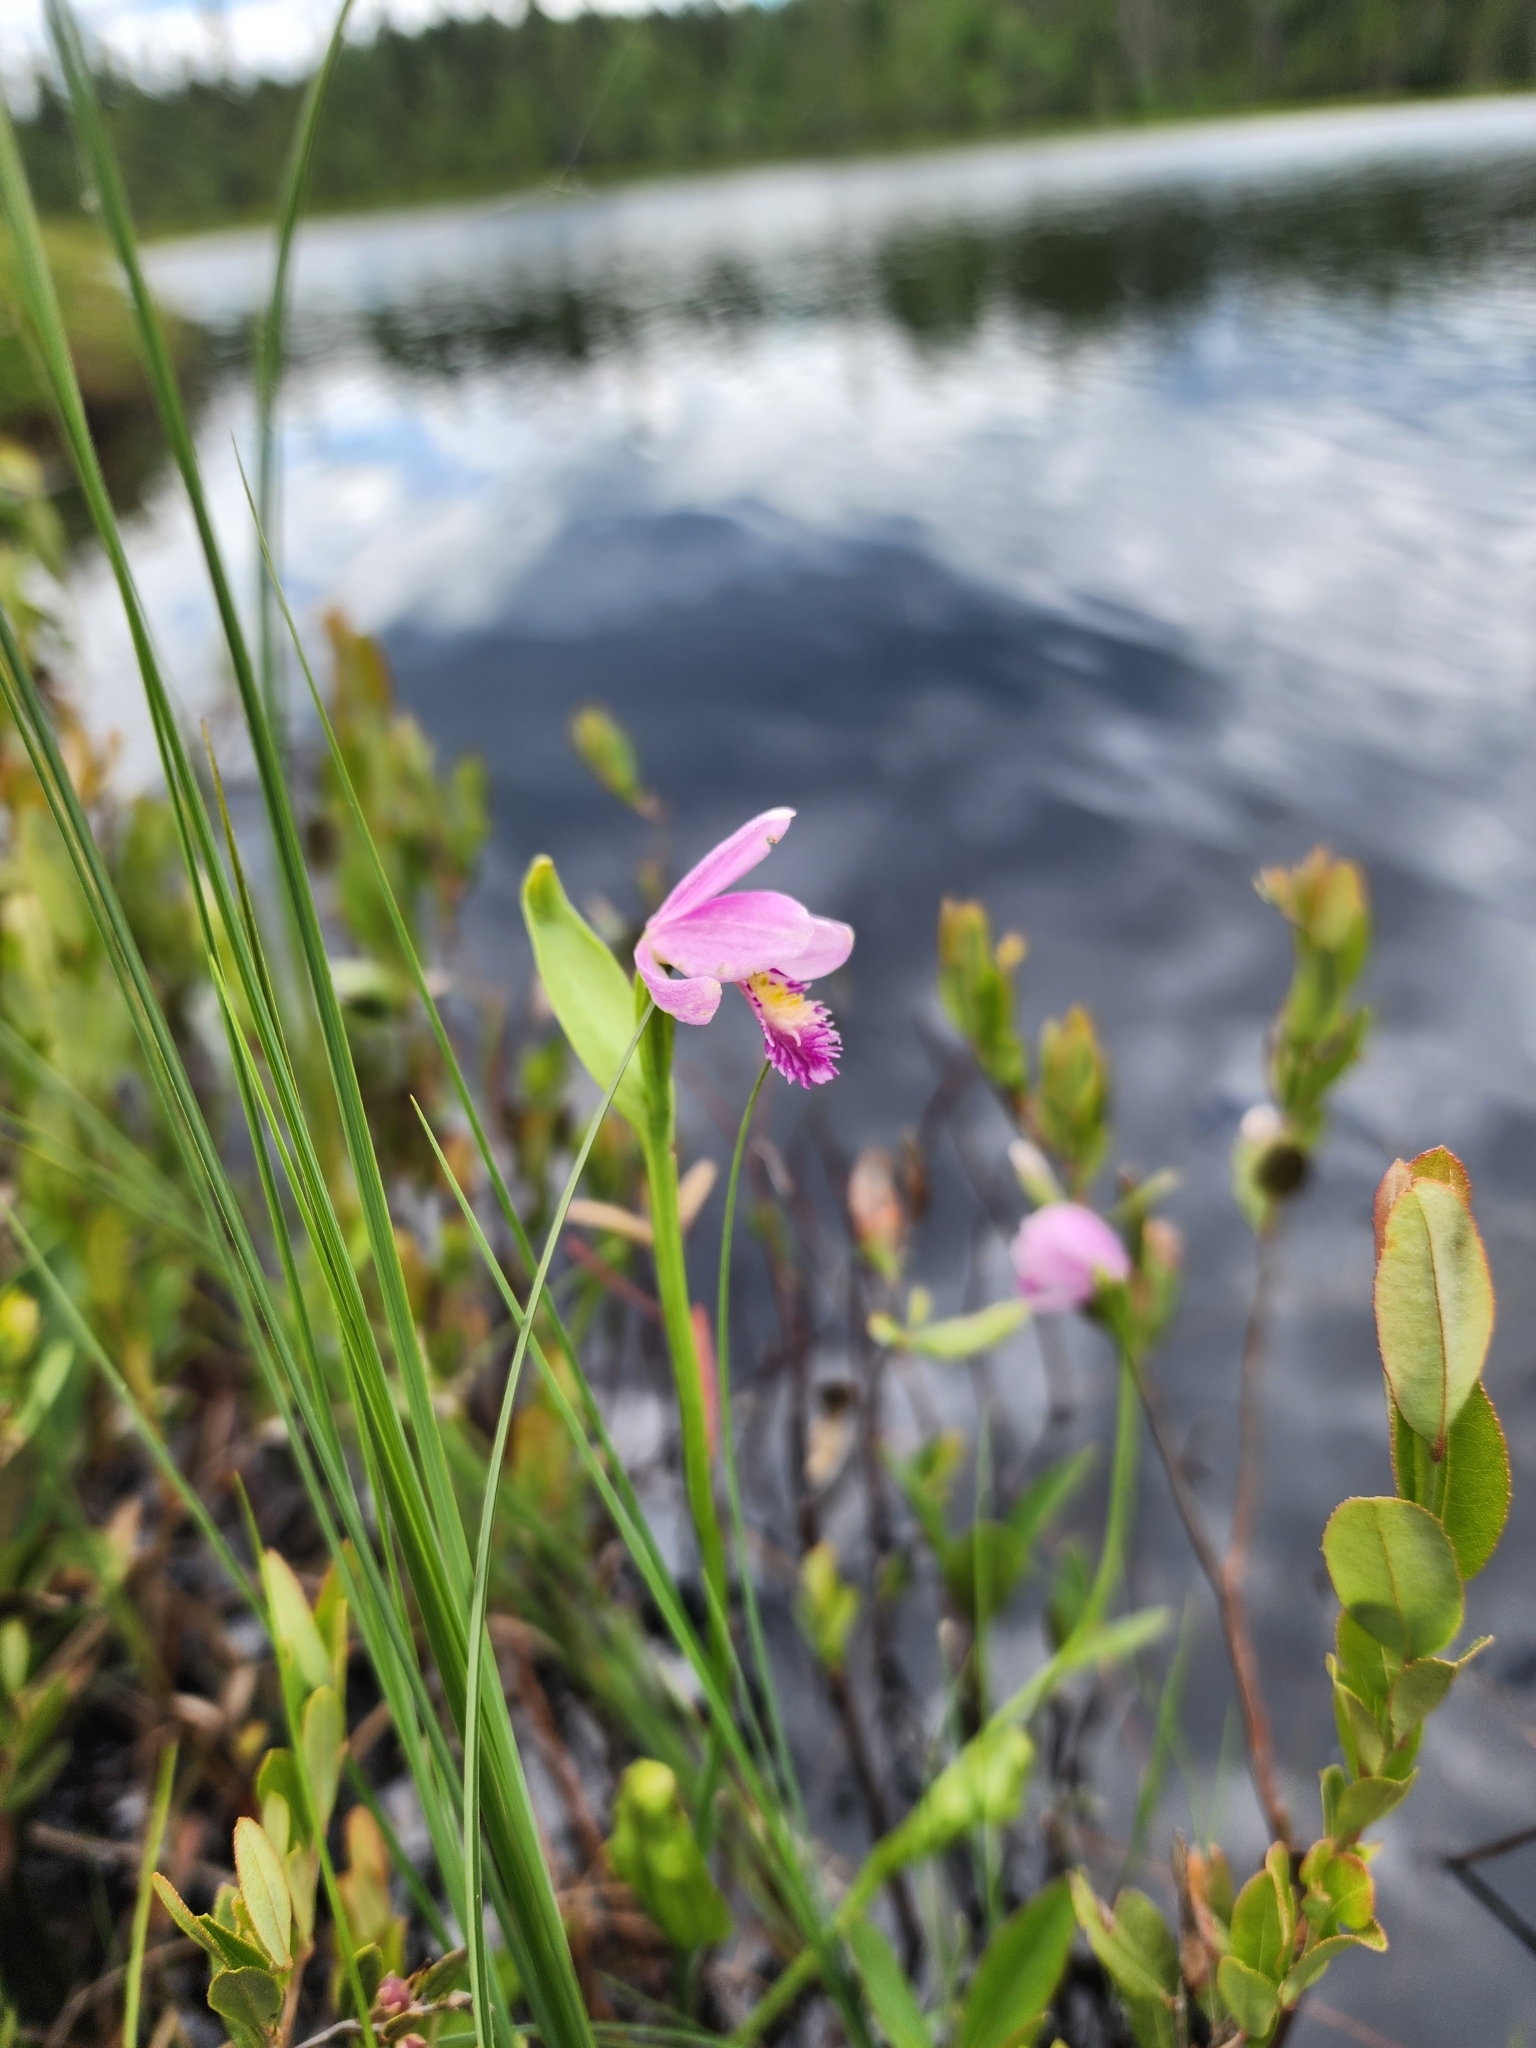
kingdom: Plantae
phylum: Tracheophyta
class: Liliopsida
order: Asparagales
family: Orchidaceae
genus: Pogonia
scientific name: Pogonia ophioglossoides
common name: Rose pogonia
